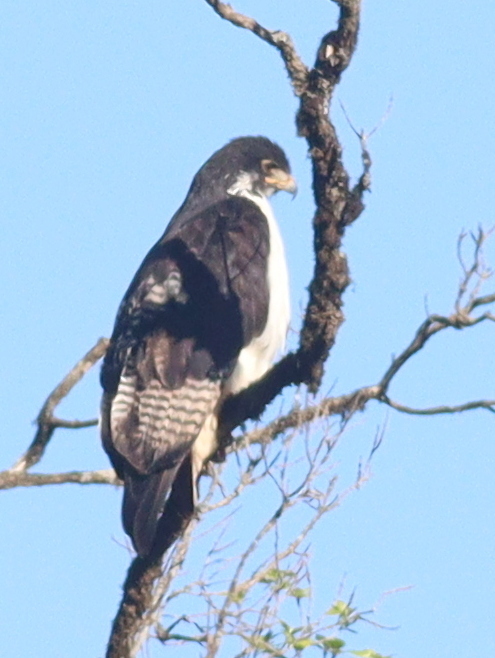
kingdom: Animalia
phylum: Chordata
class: Aves
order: Accipitriformes
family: Accipitridae
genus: Buteo
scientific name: Buteo augur
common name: Augur buzzard
